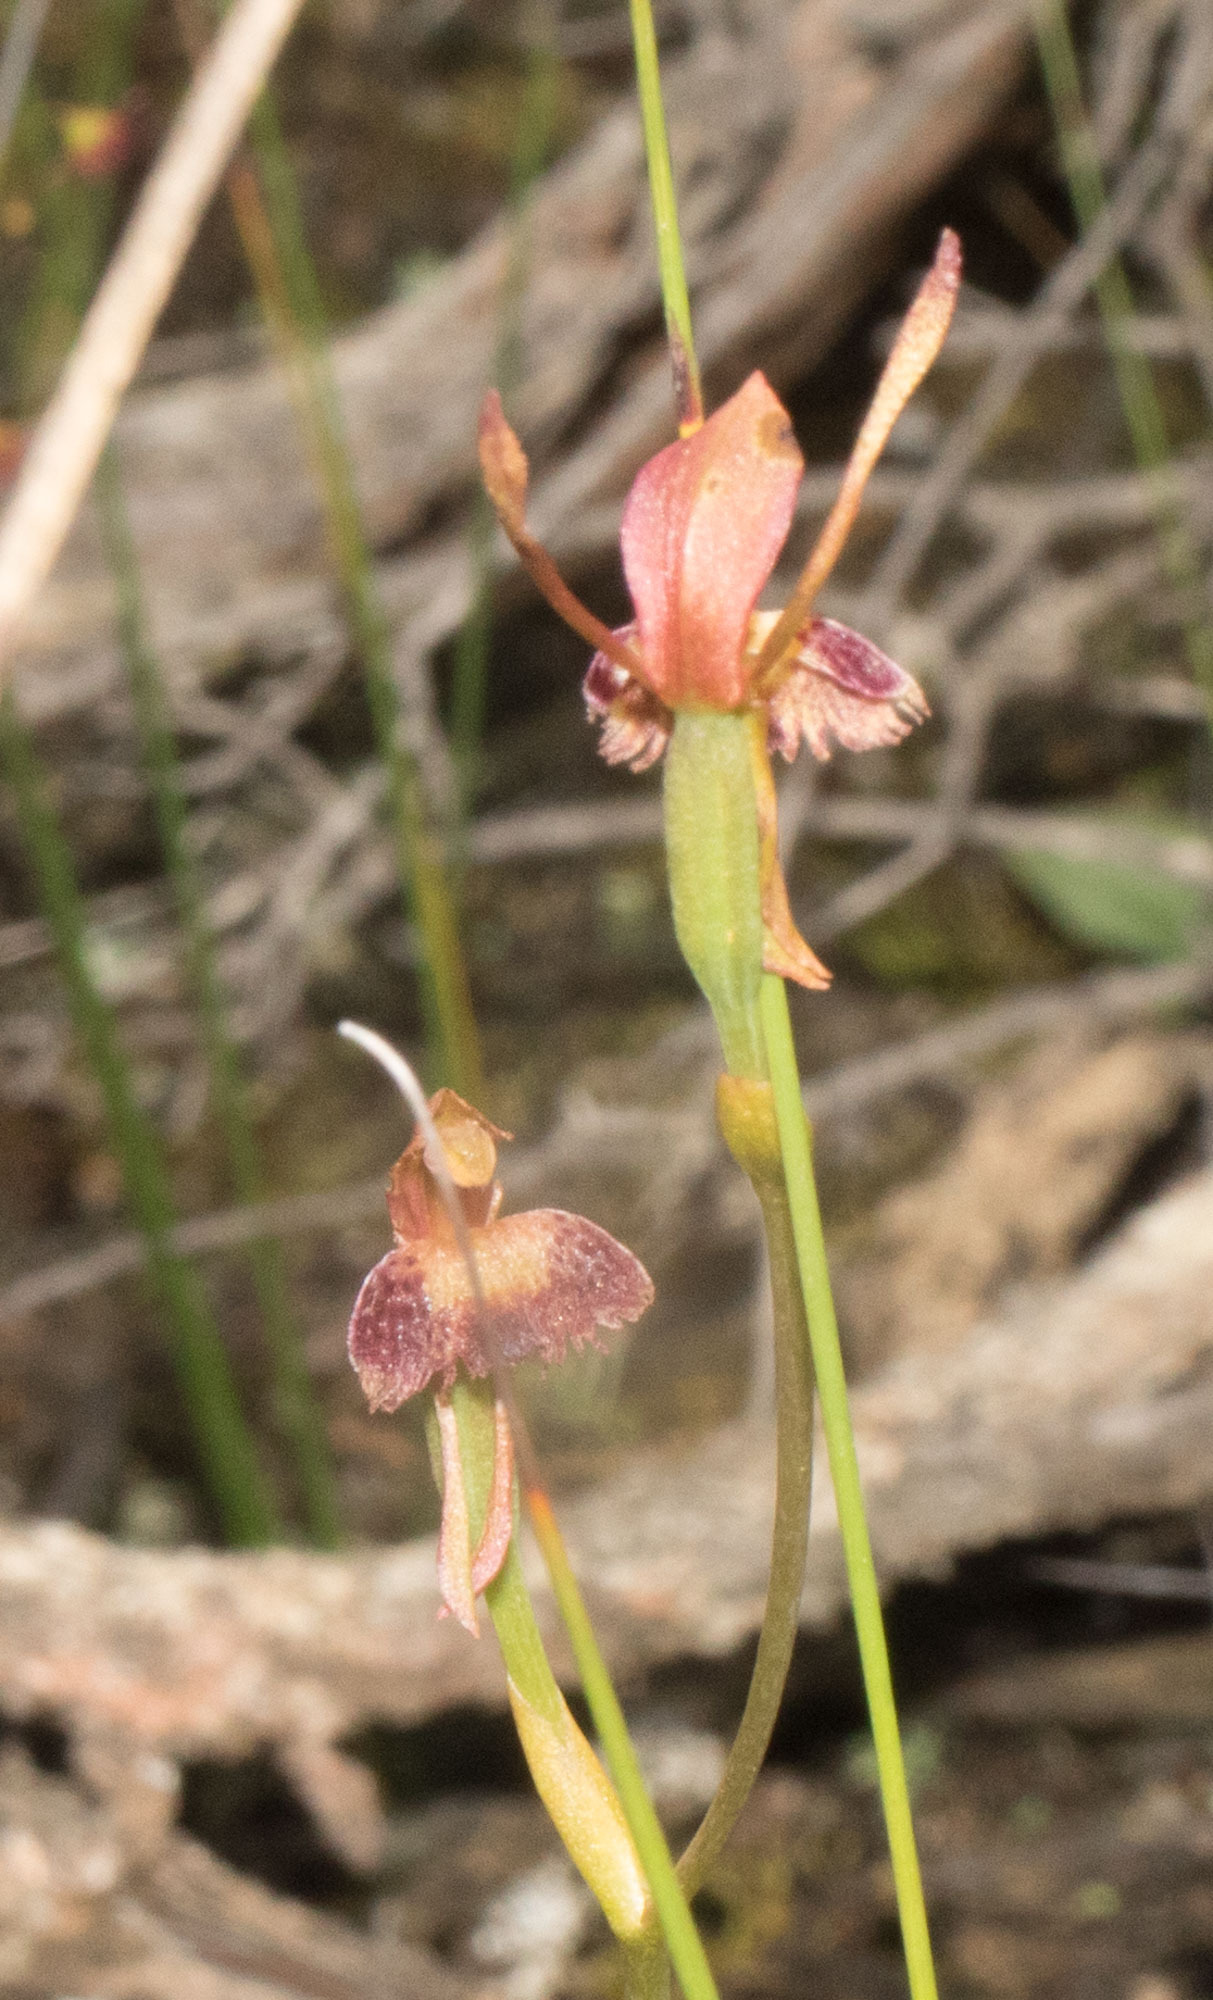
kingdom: Plantae
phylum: Tracheophyta
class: Liliopsida
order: Asparagales
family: Orchidaceae
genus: Leporella
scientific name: Leporella fimbriata
